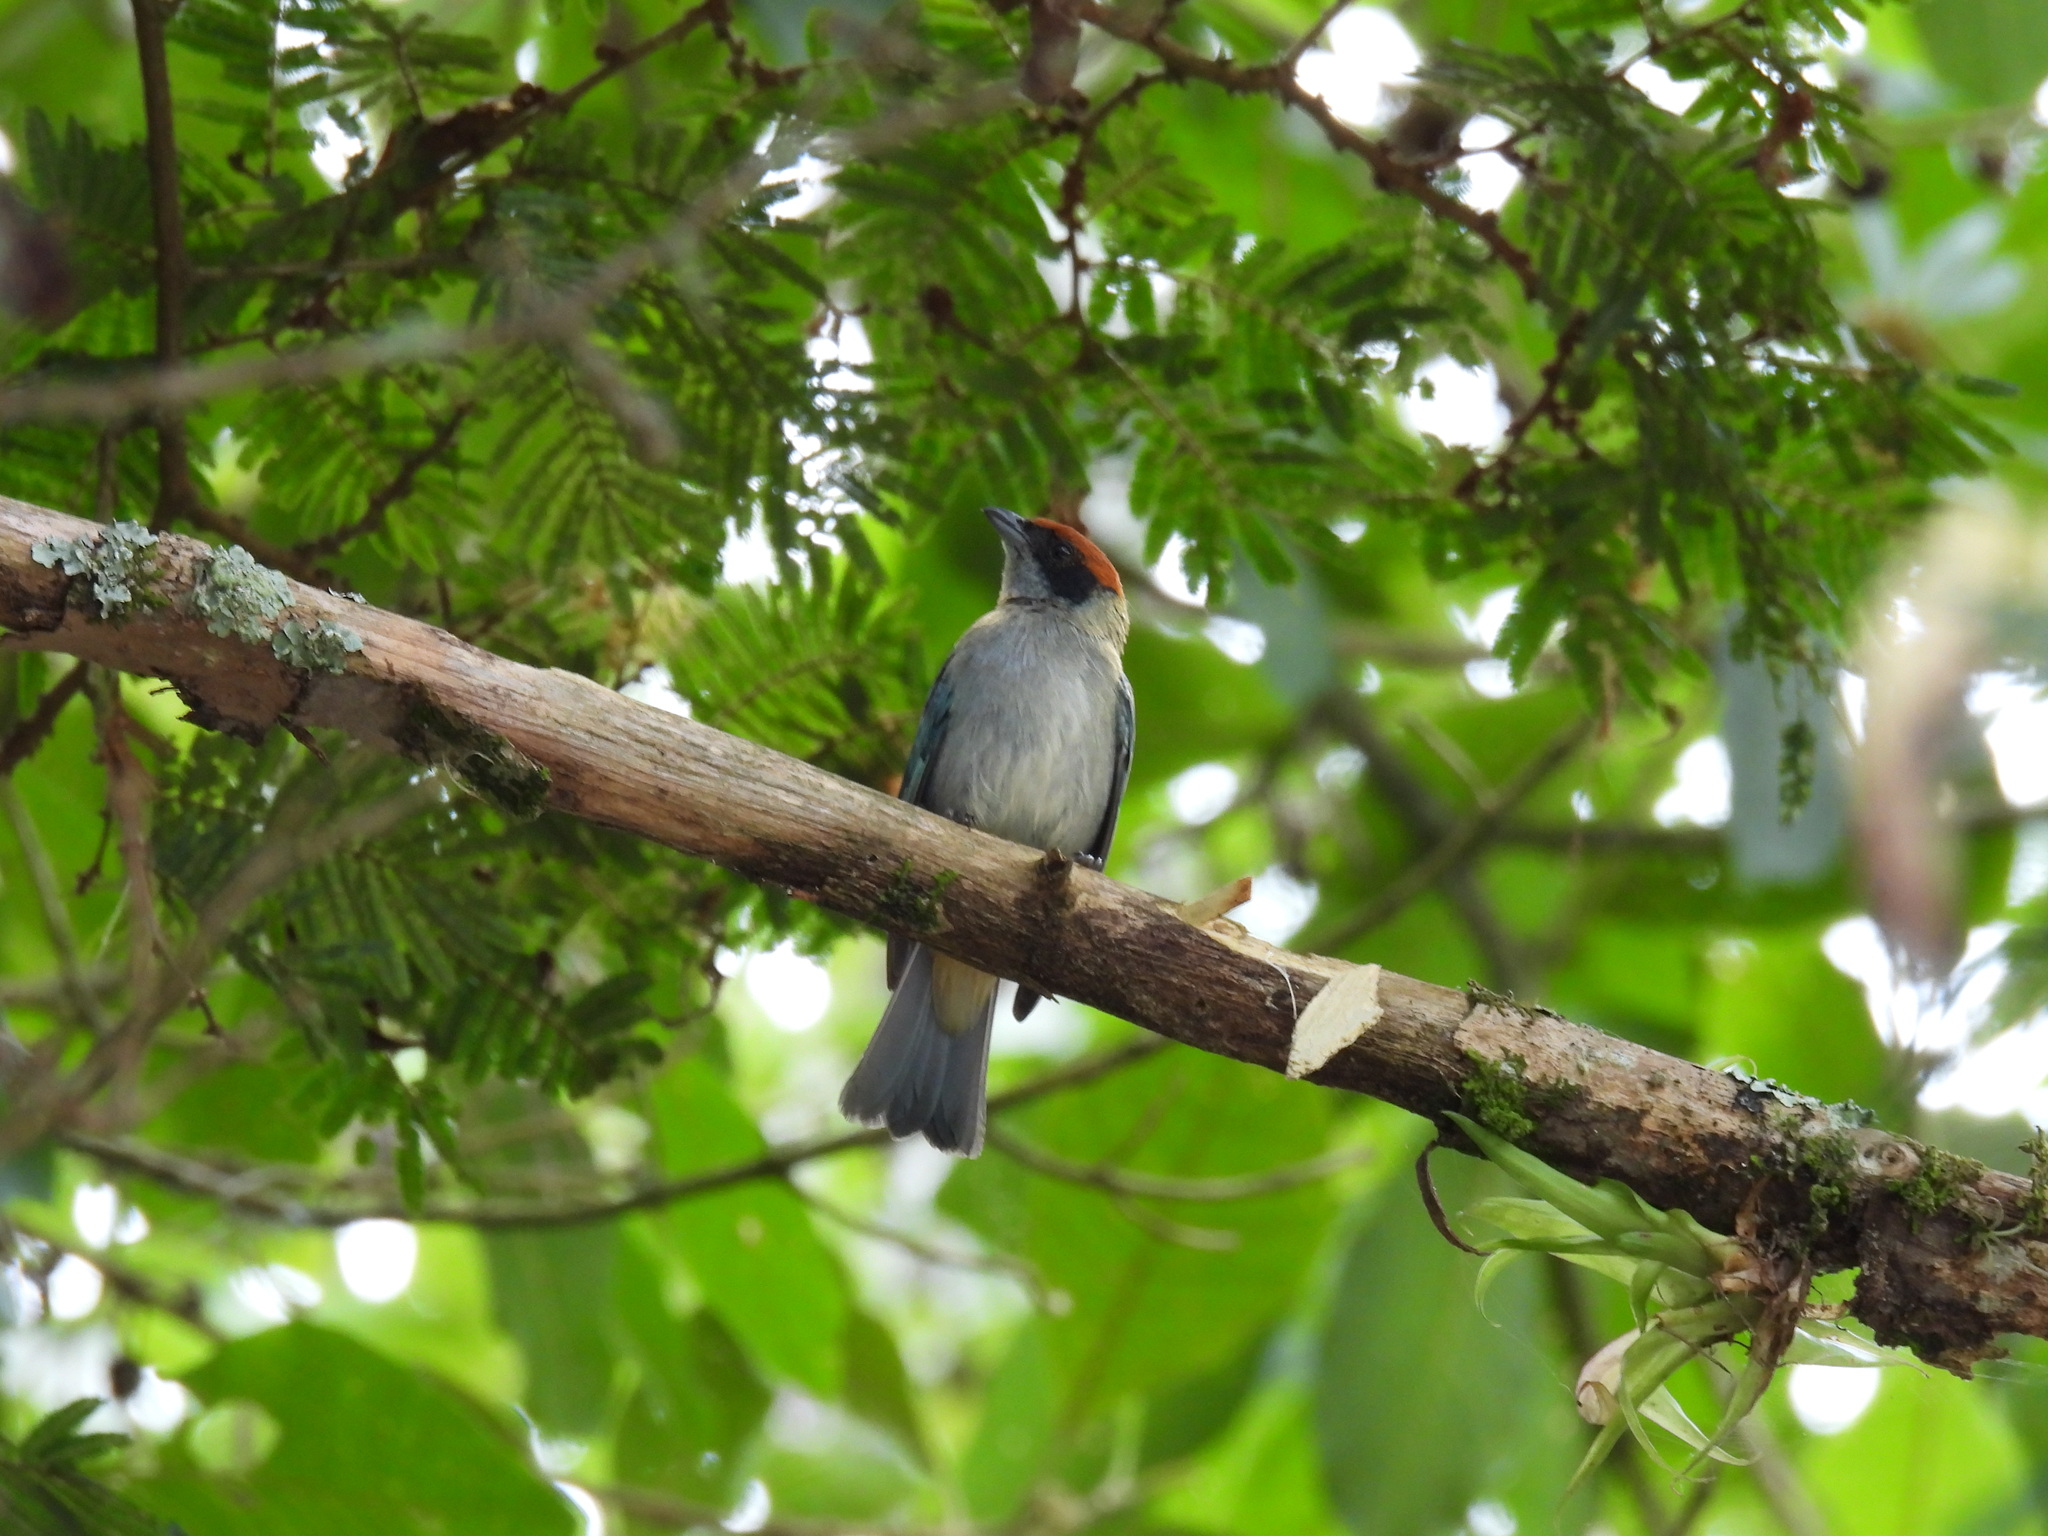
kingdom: Animalia
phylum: Chordata
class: Aves
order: Passeriformes
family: Thraupidae
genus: Stilpnia
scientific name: Stilpnia vitriolina
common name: Scrub tanager
